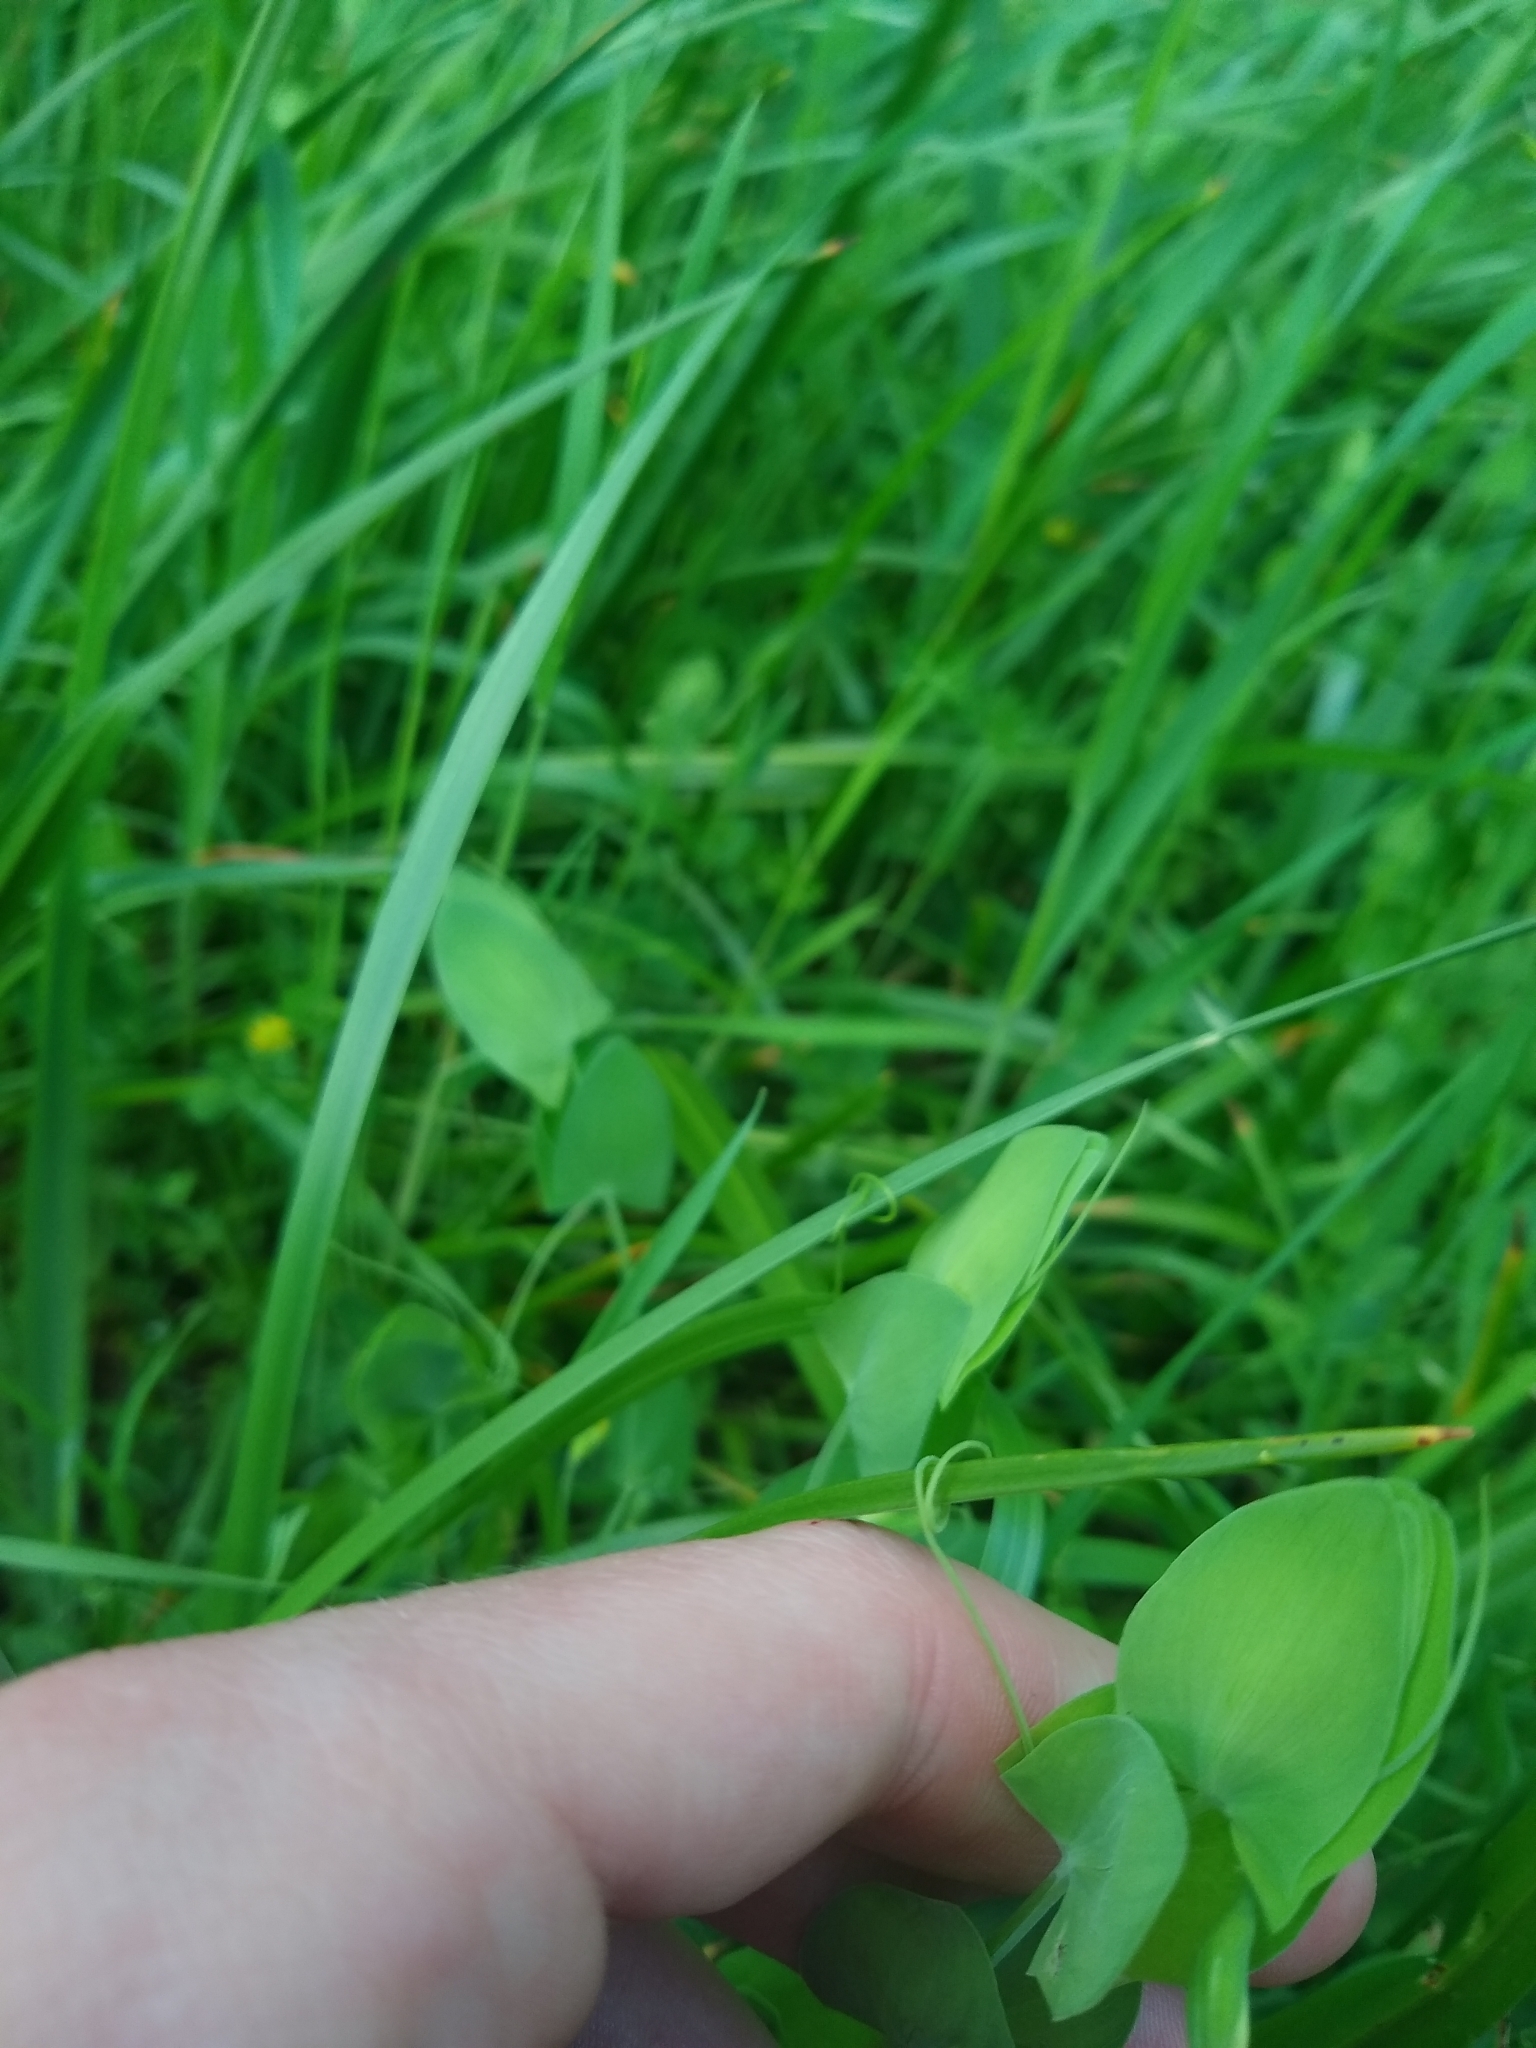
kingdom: Plantae
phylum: Tracheophyta
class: Magnoliopsida
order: Fabales
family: Fabaceae
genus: Lathyrus
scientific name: Lathyrus aphaca
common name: Yellow vetchling
